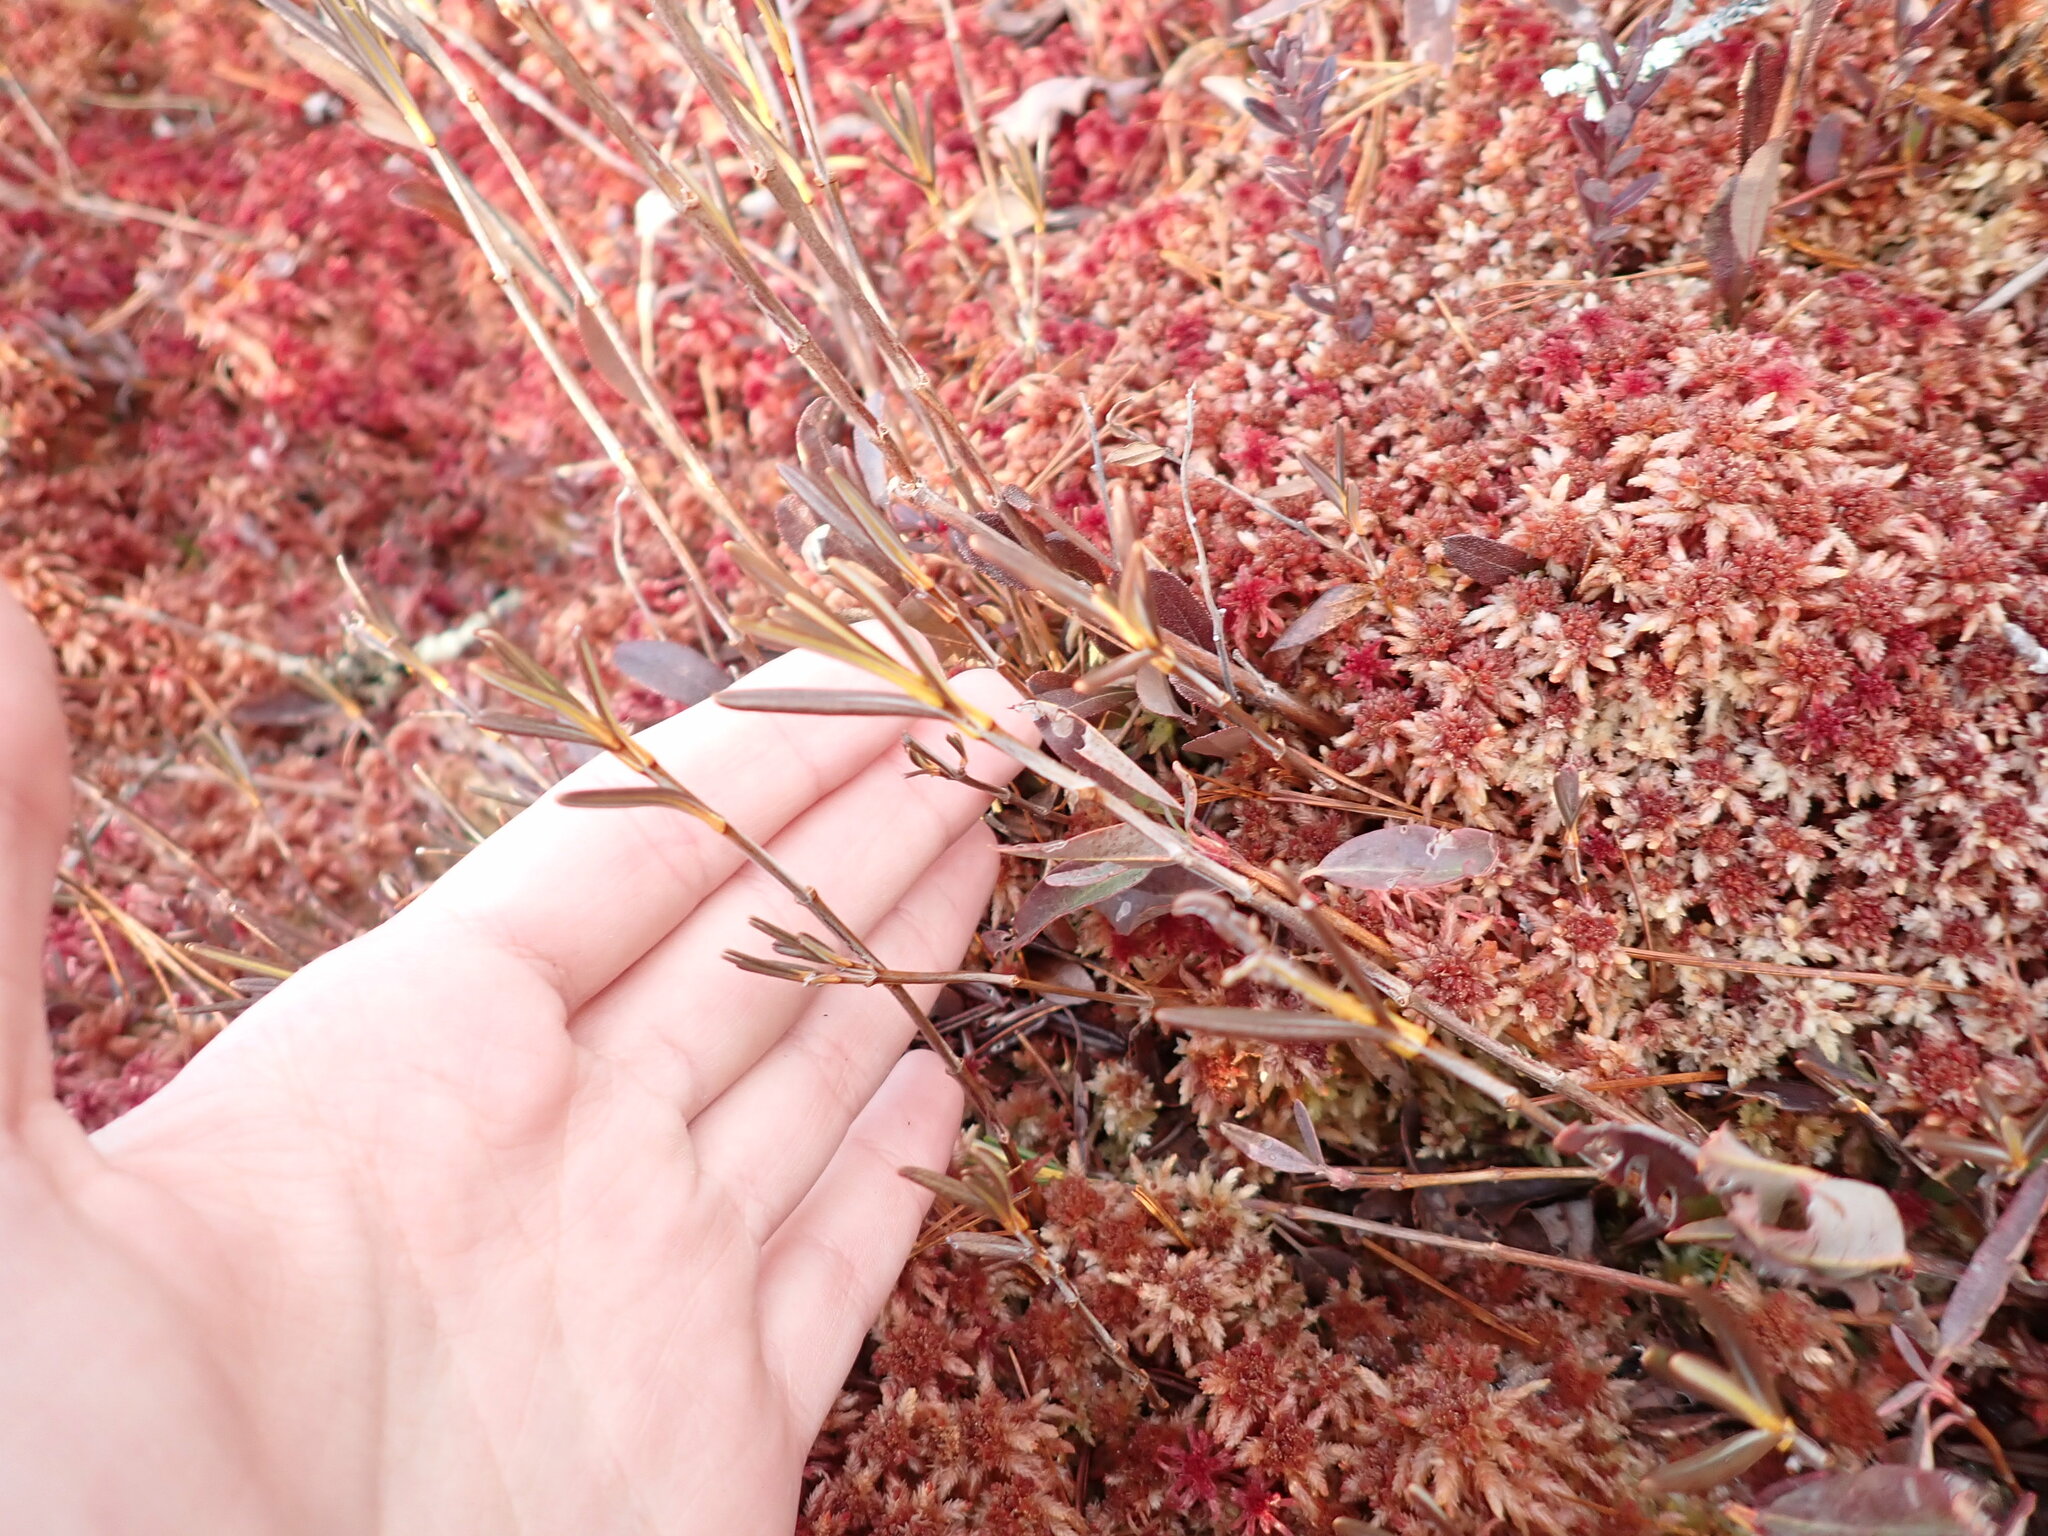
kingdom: Plantae
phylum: Tracheophyta
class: Magnoliopsida
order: Ericales
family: Ericaceae
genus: Kalmia
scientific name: Kalmia polifolia
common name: Bog-laurel
